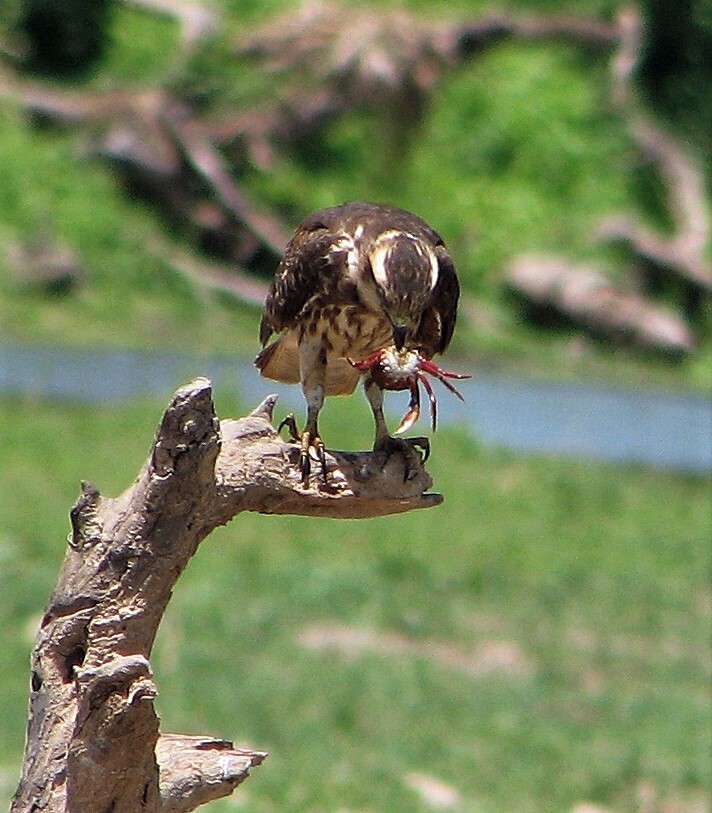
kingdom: Animalia
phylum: Chordata
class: Aves
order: Accipitriformes
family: Accipitridae
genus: Rostrhamus
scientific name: Rostrhamus sociabilis
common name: Snail kite
